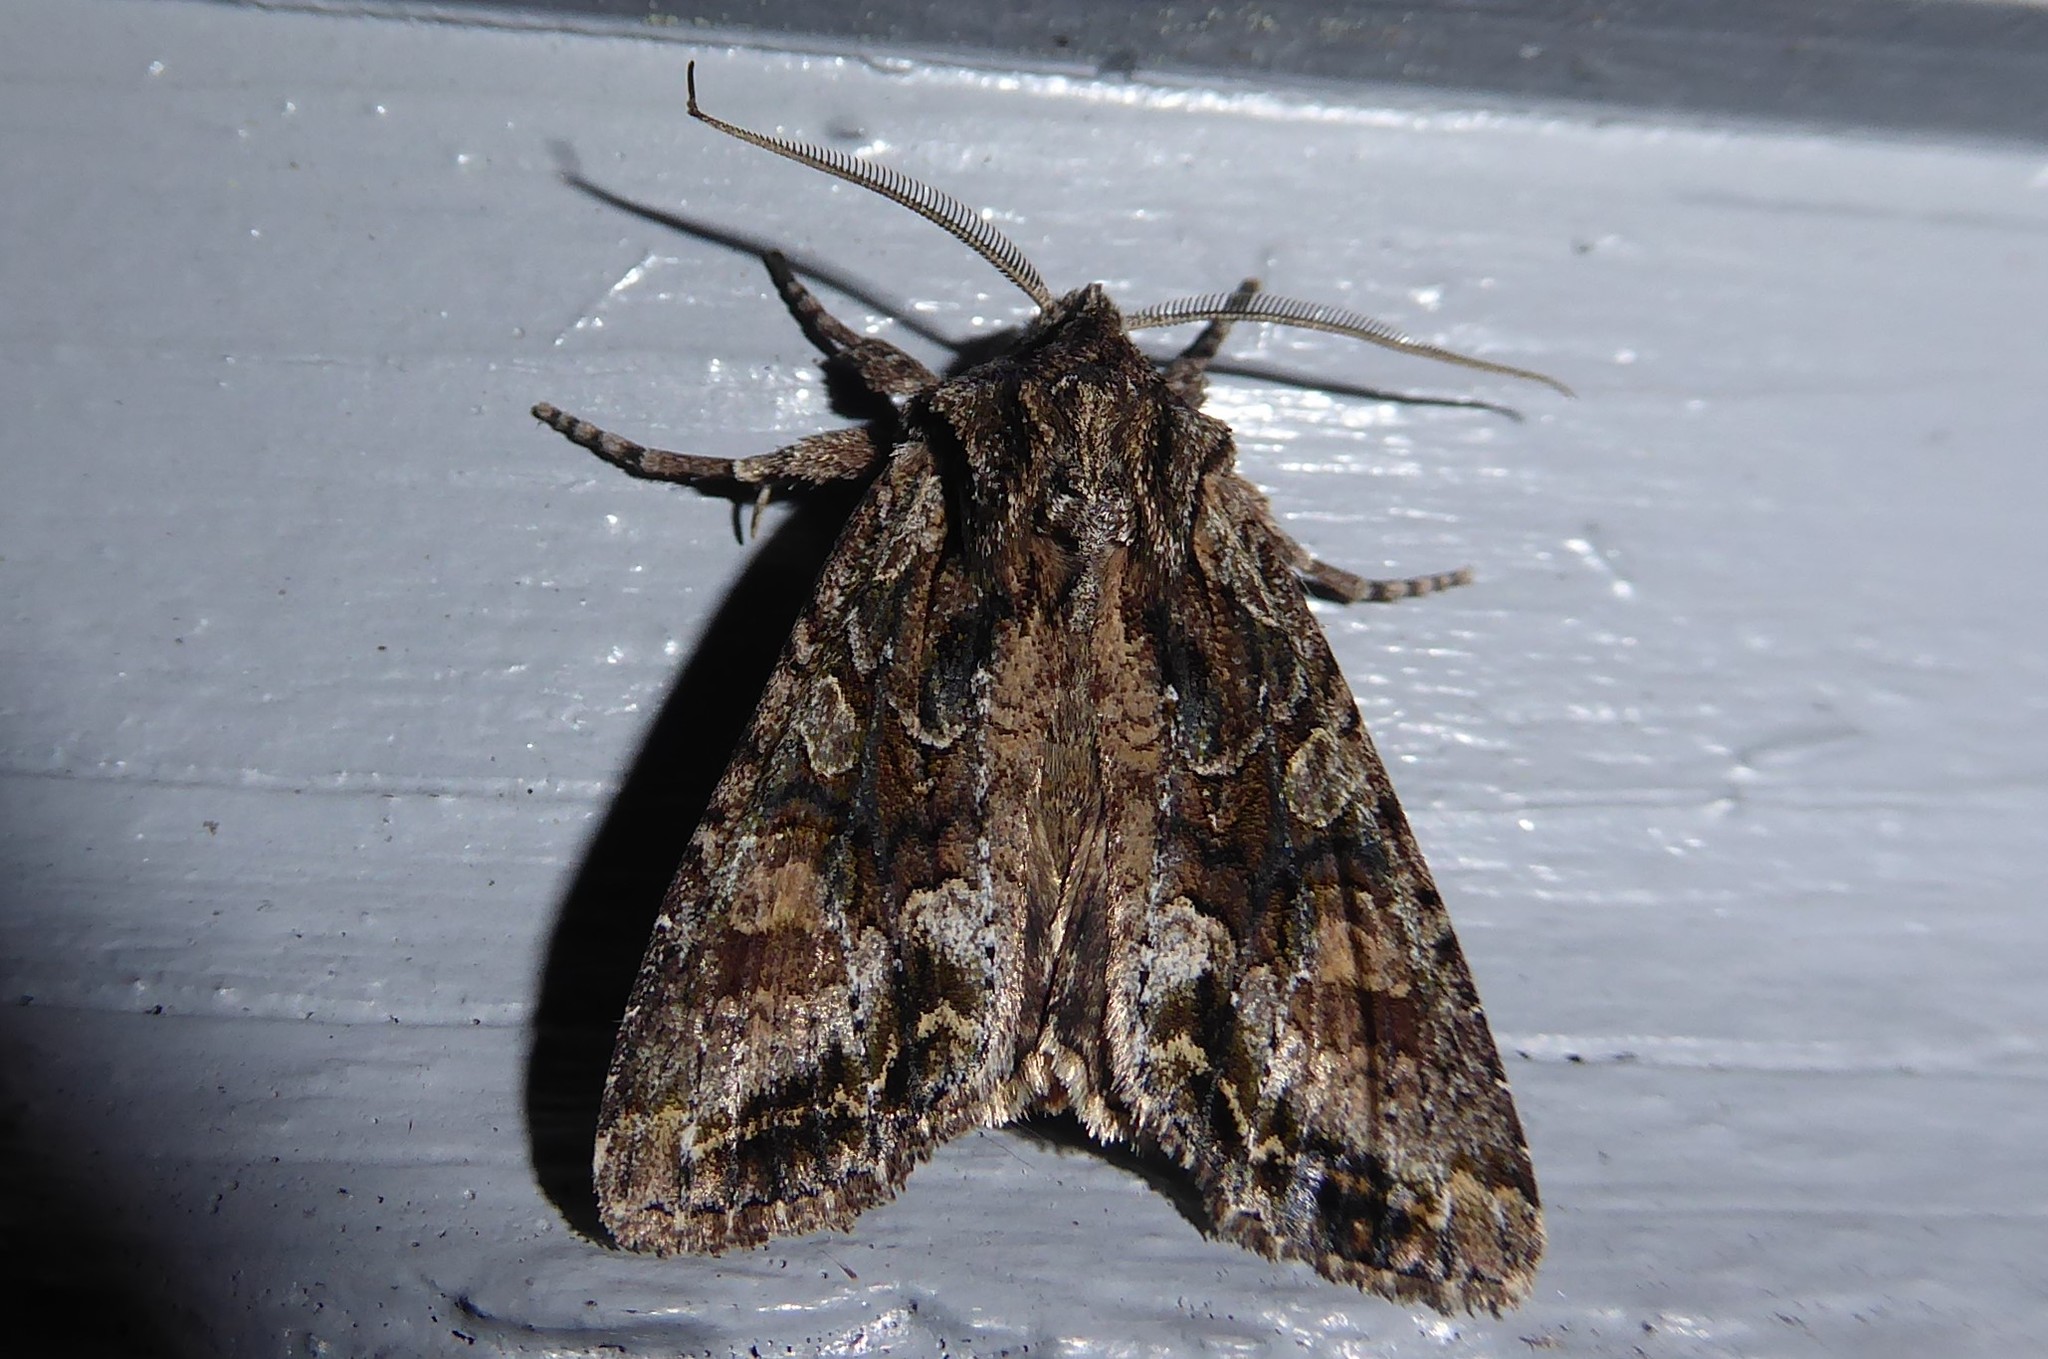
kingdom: Animalia
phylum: Arthropoda
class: Insecta
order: Lepidoptera
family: Noctuidae
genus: Ichneutica
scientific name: Ichneutica mutans
